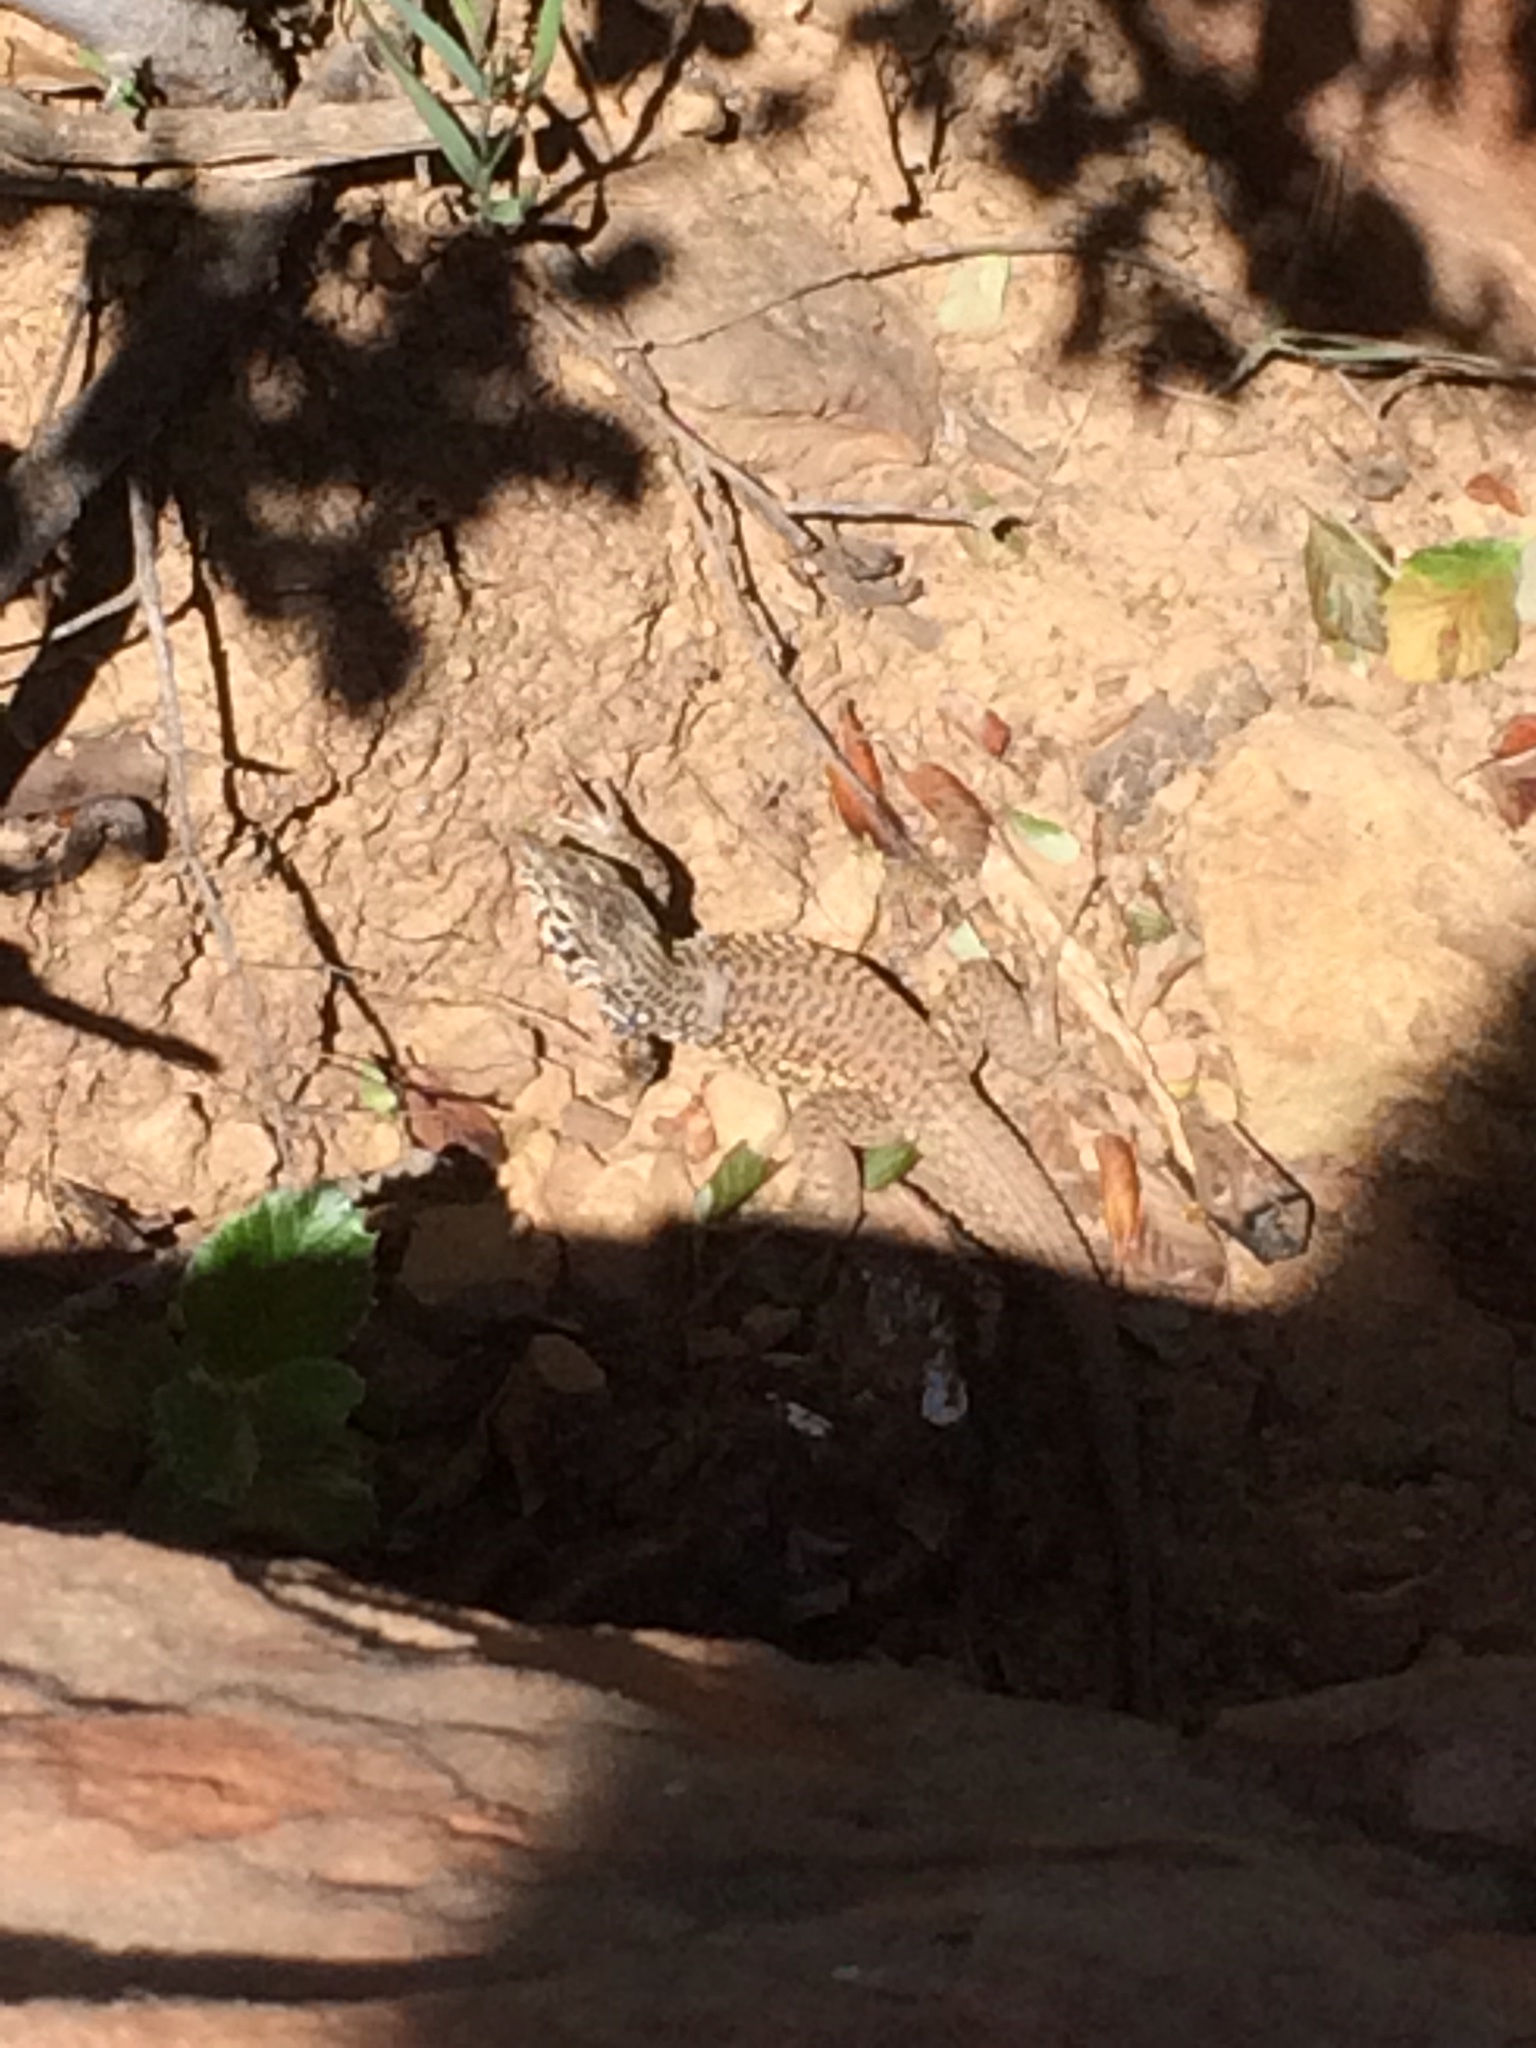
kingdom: Animalia
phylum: Chordata
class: Squamata
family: Teiidae
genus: Aspidoscelis
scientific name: Aspidoscelis tigris
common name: Tiger whiptail
